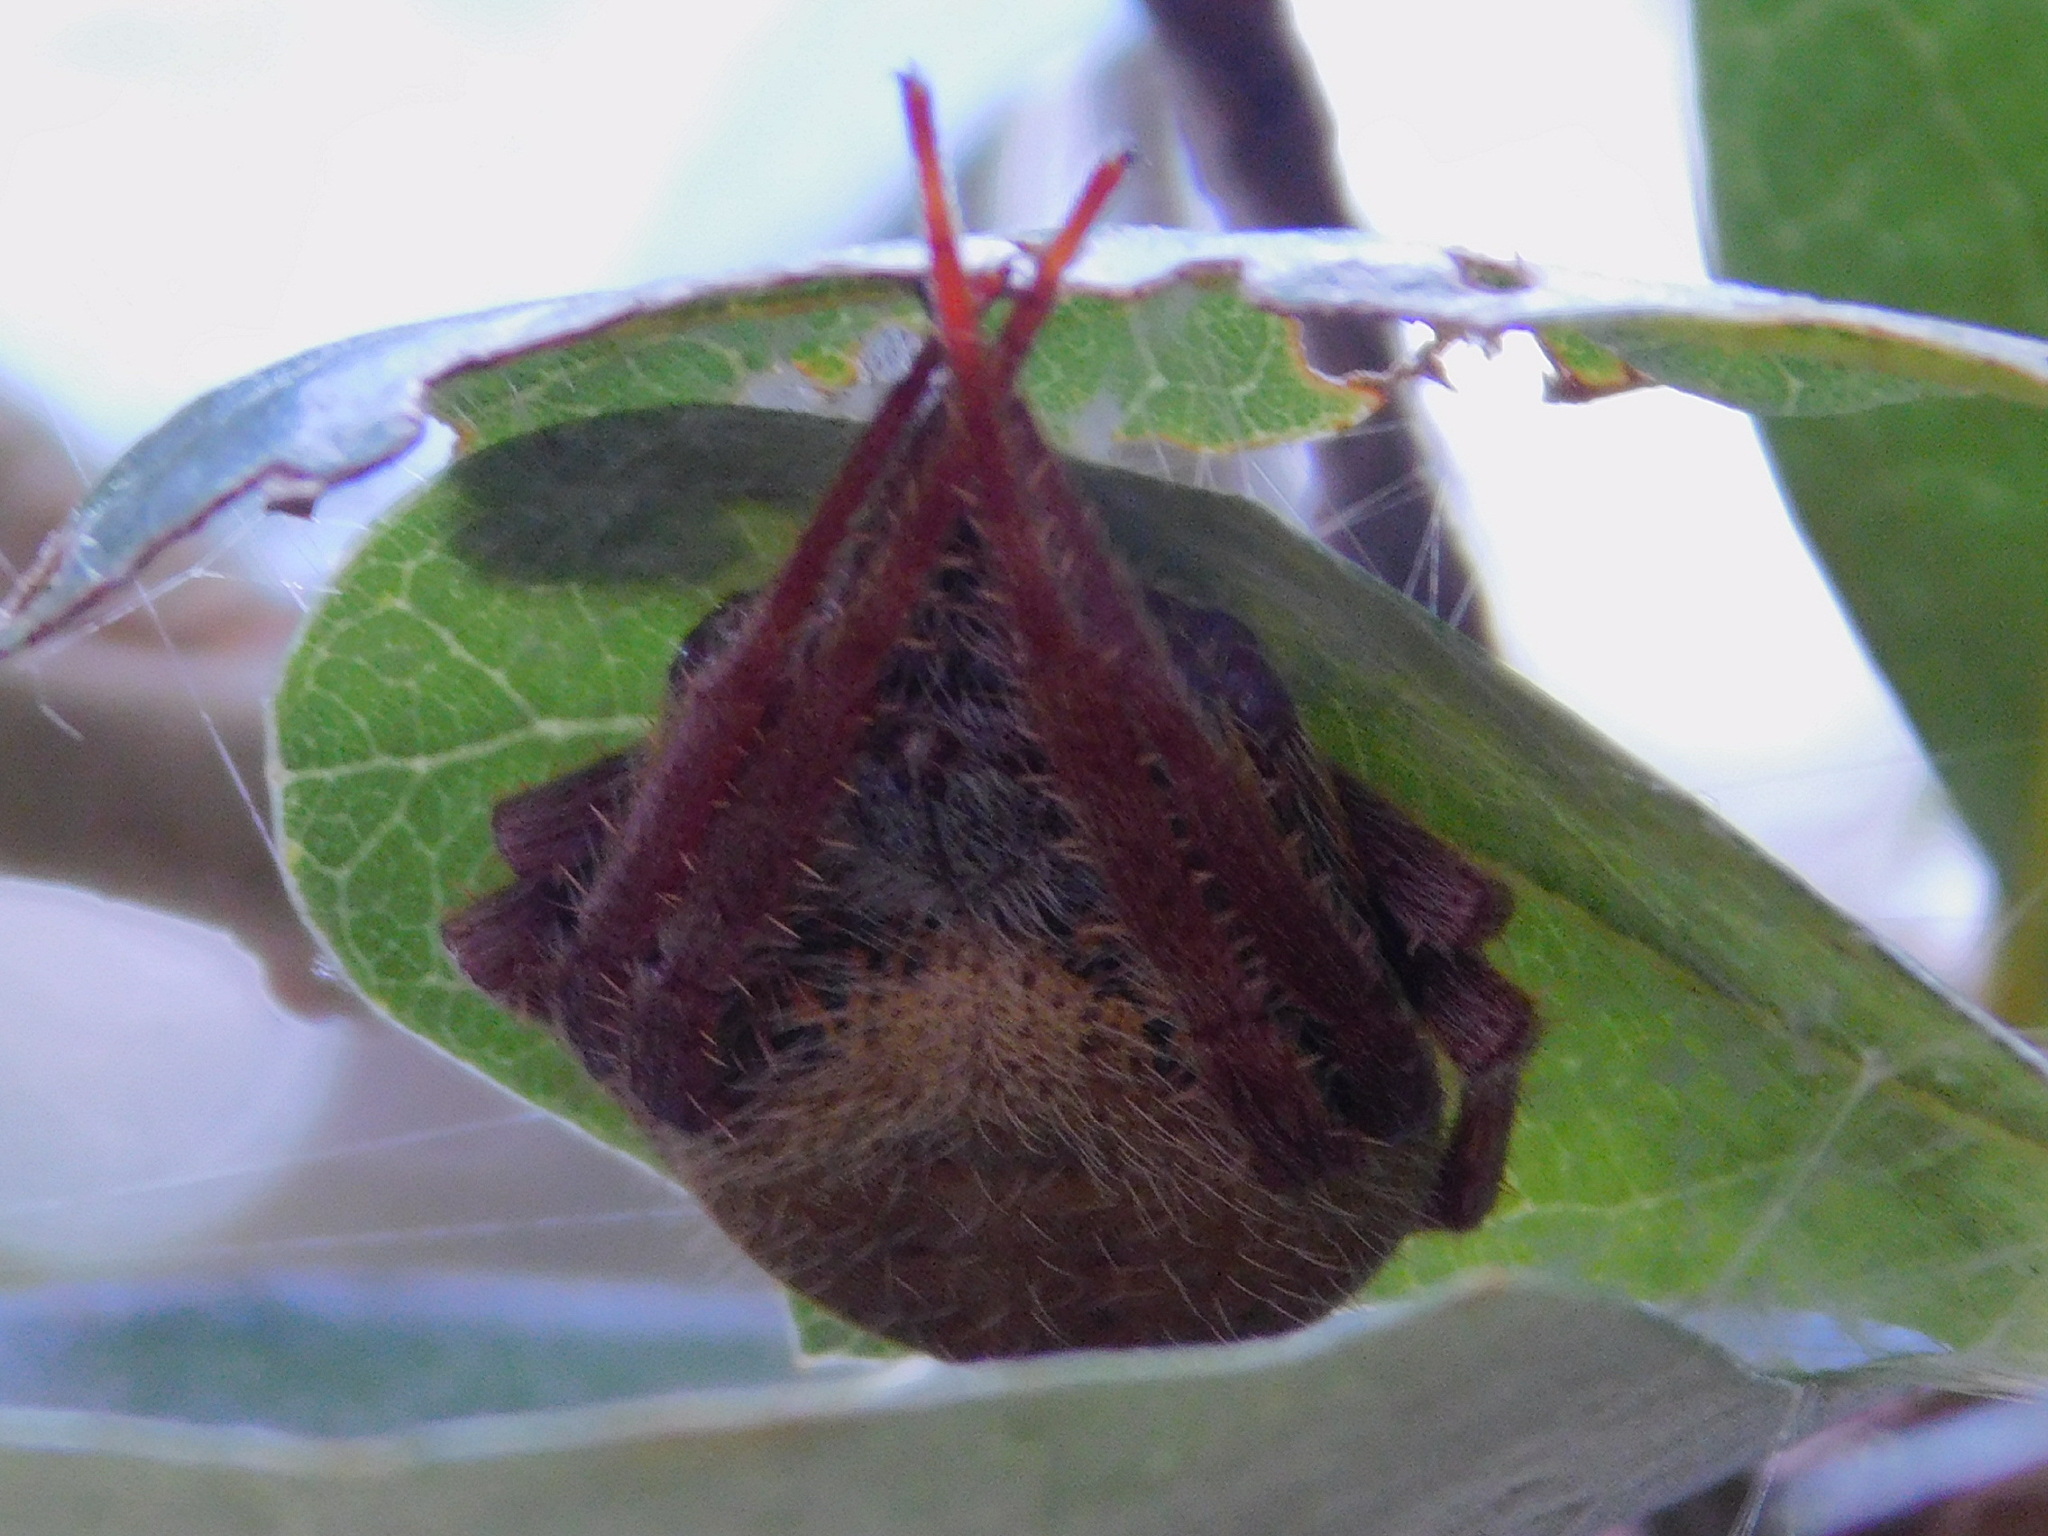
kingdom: Animalia
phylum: Arthropoda
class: Arachnida
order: Araneae
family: Araneidae
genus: Eriophora
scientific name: Eriophora ravilla
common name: Orb weavers
